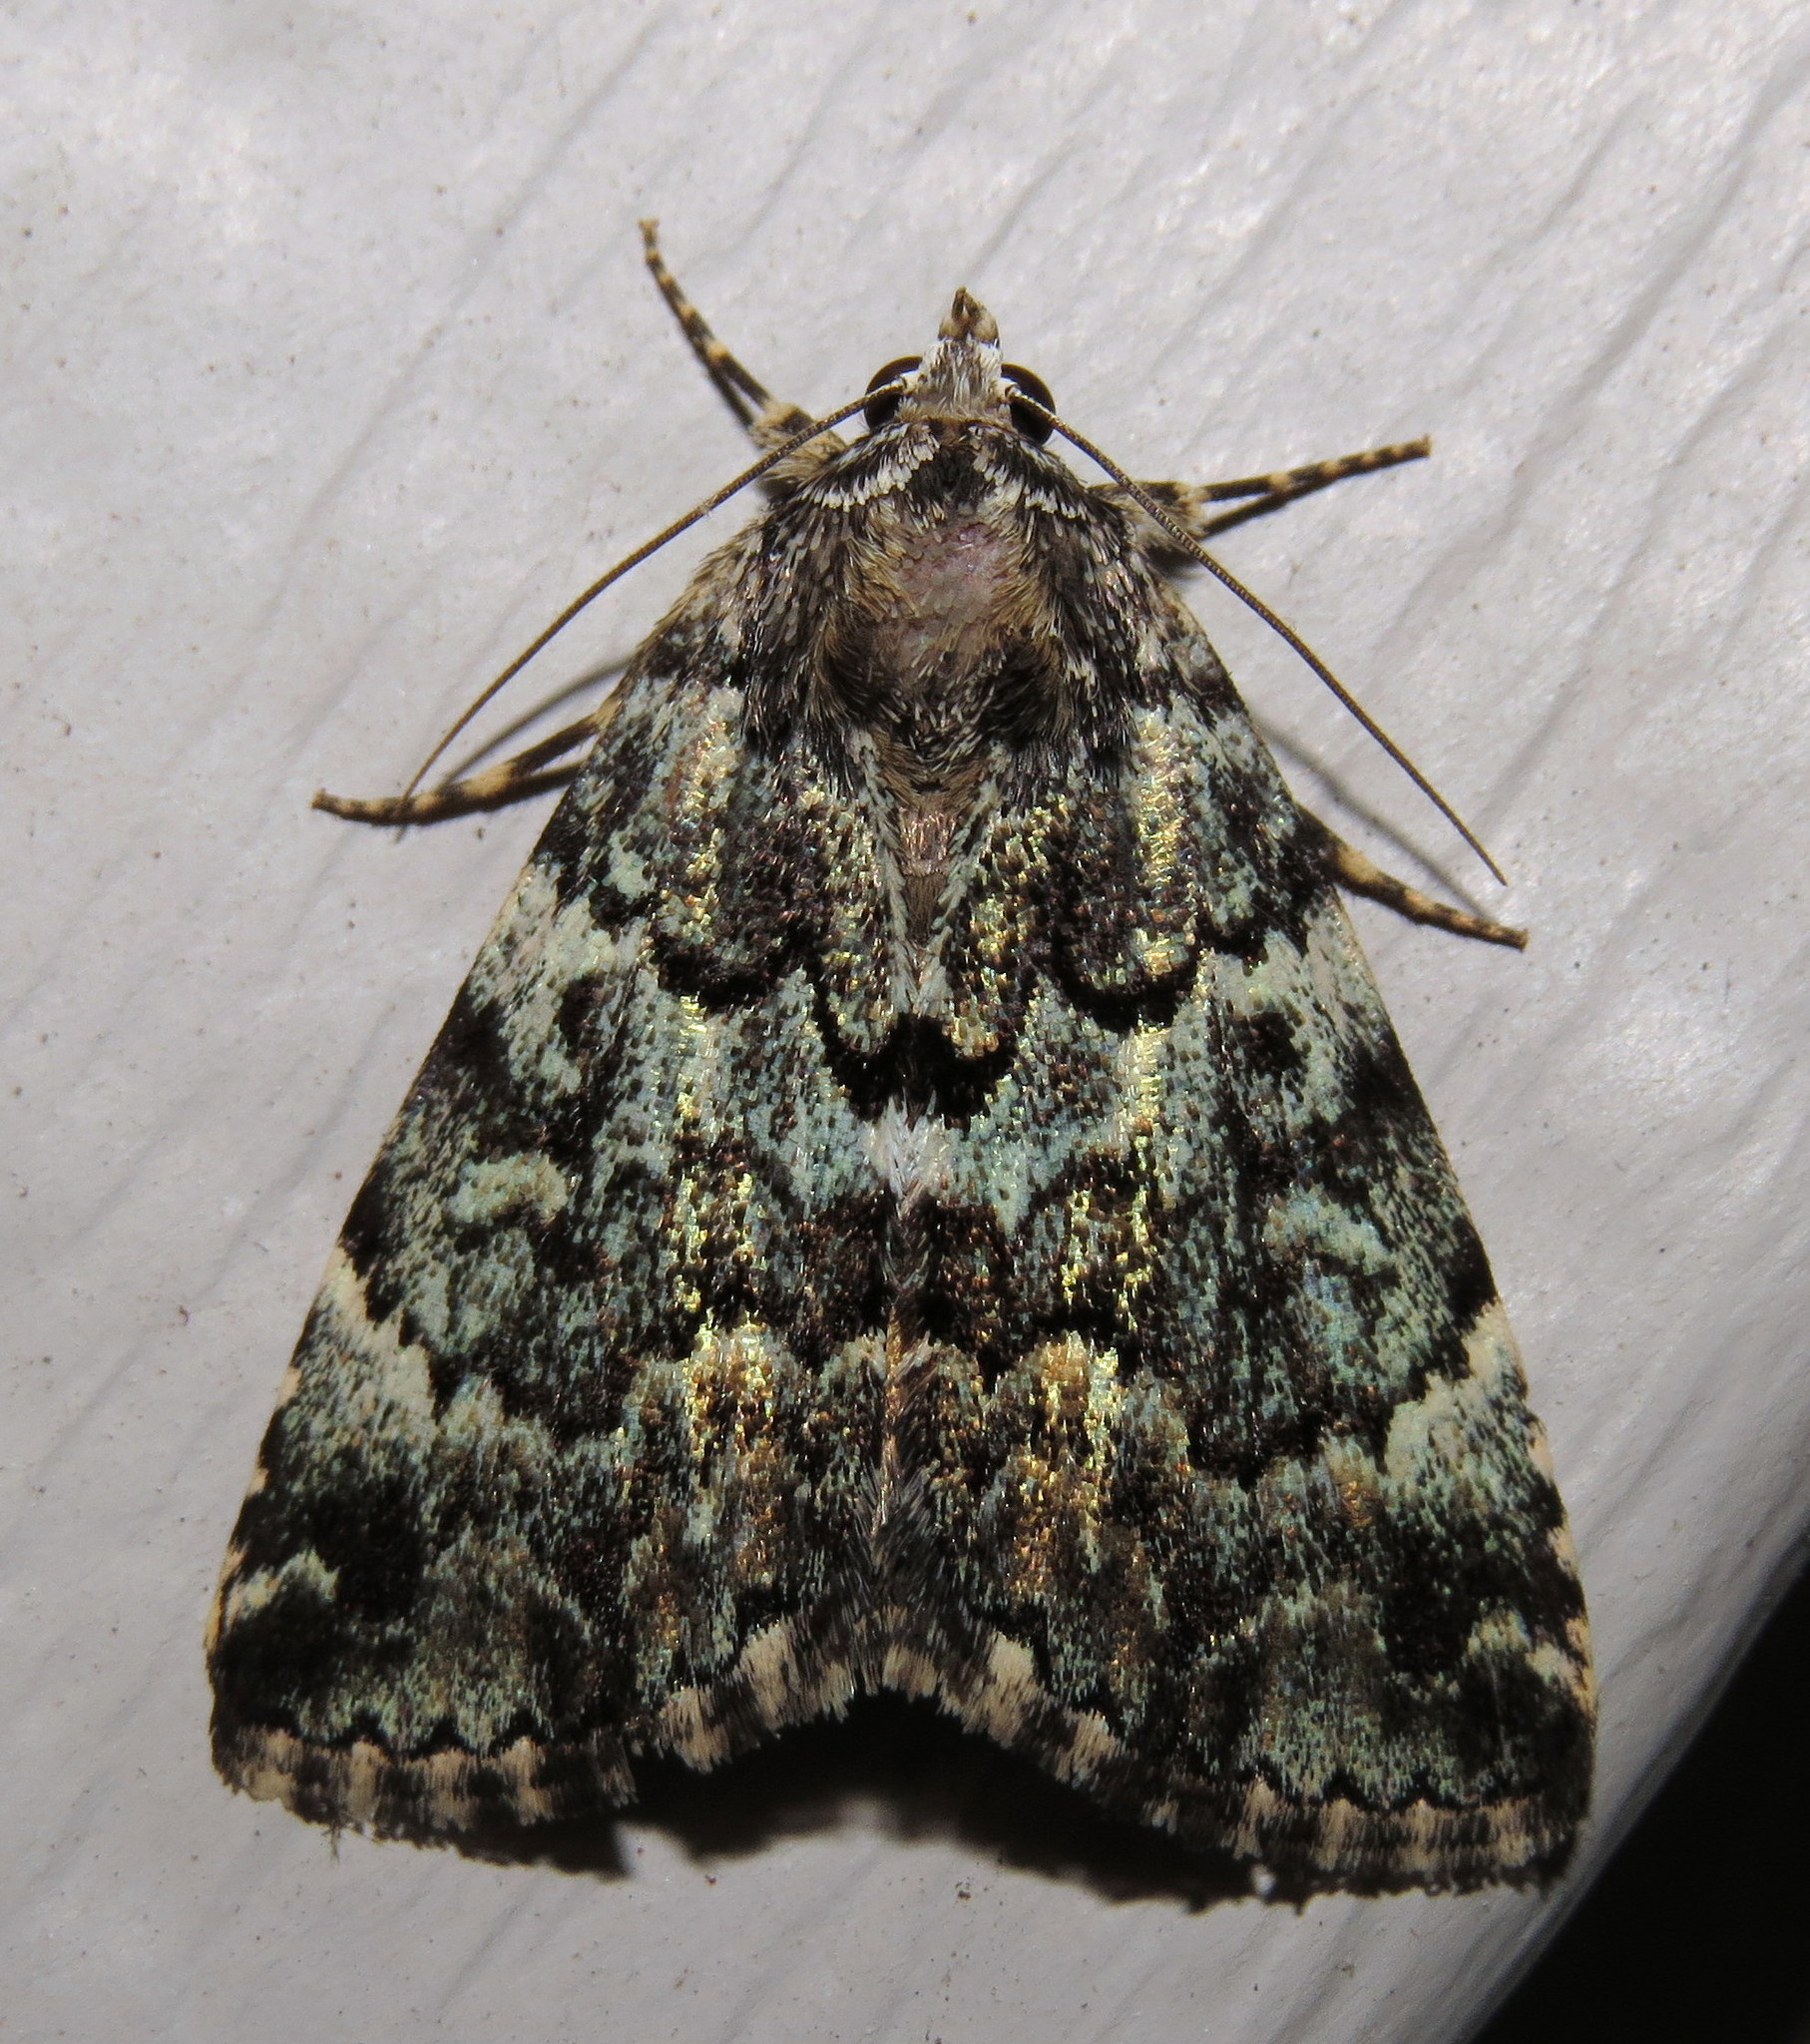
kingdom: Animalia
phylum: Arthropoda
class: Insecta
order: Lepidoptera
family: Erebidae
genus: Allotria
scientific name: Allotria elonympha
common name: False underwing
